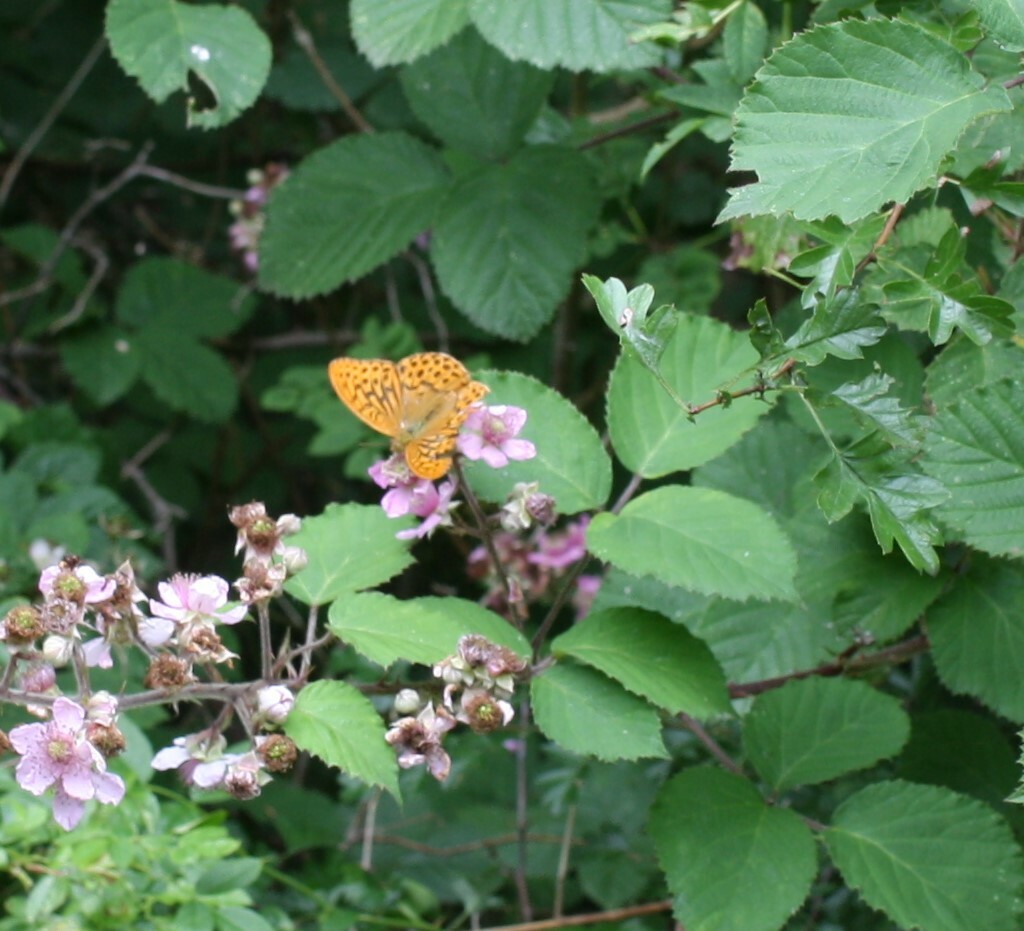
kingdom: Animalia
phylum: Arthropoda
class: Insecta
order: Lepidoptera
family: Nymphalidae
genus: Argynnis
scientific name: Argynnis paphia
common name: Silver-washed fritillary
